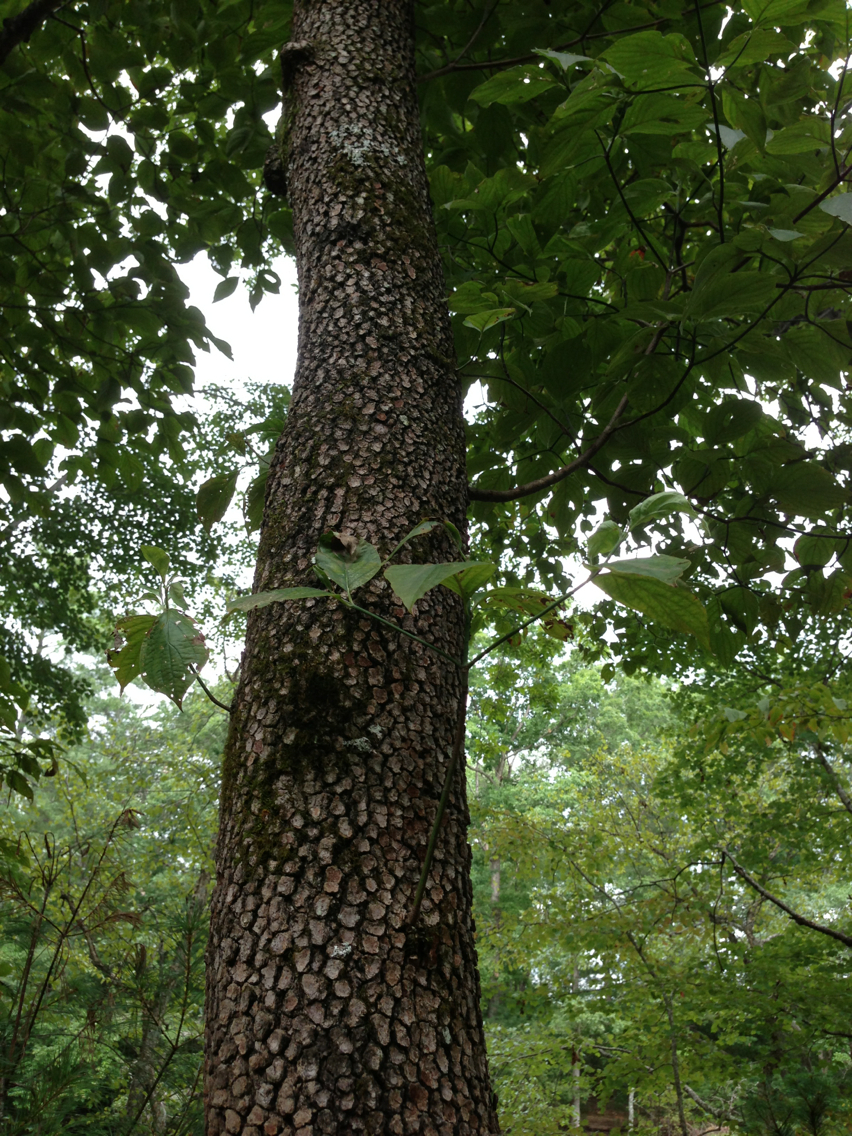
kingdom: Plantae
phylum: Tracheophyta
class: Magnoliopsida
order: Cornales
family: Cornaceae
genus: Cornus
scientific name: Cornus florida
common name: Flowering dogwood
